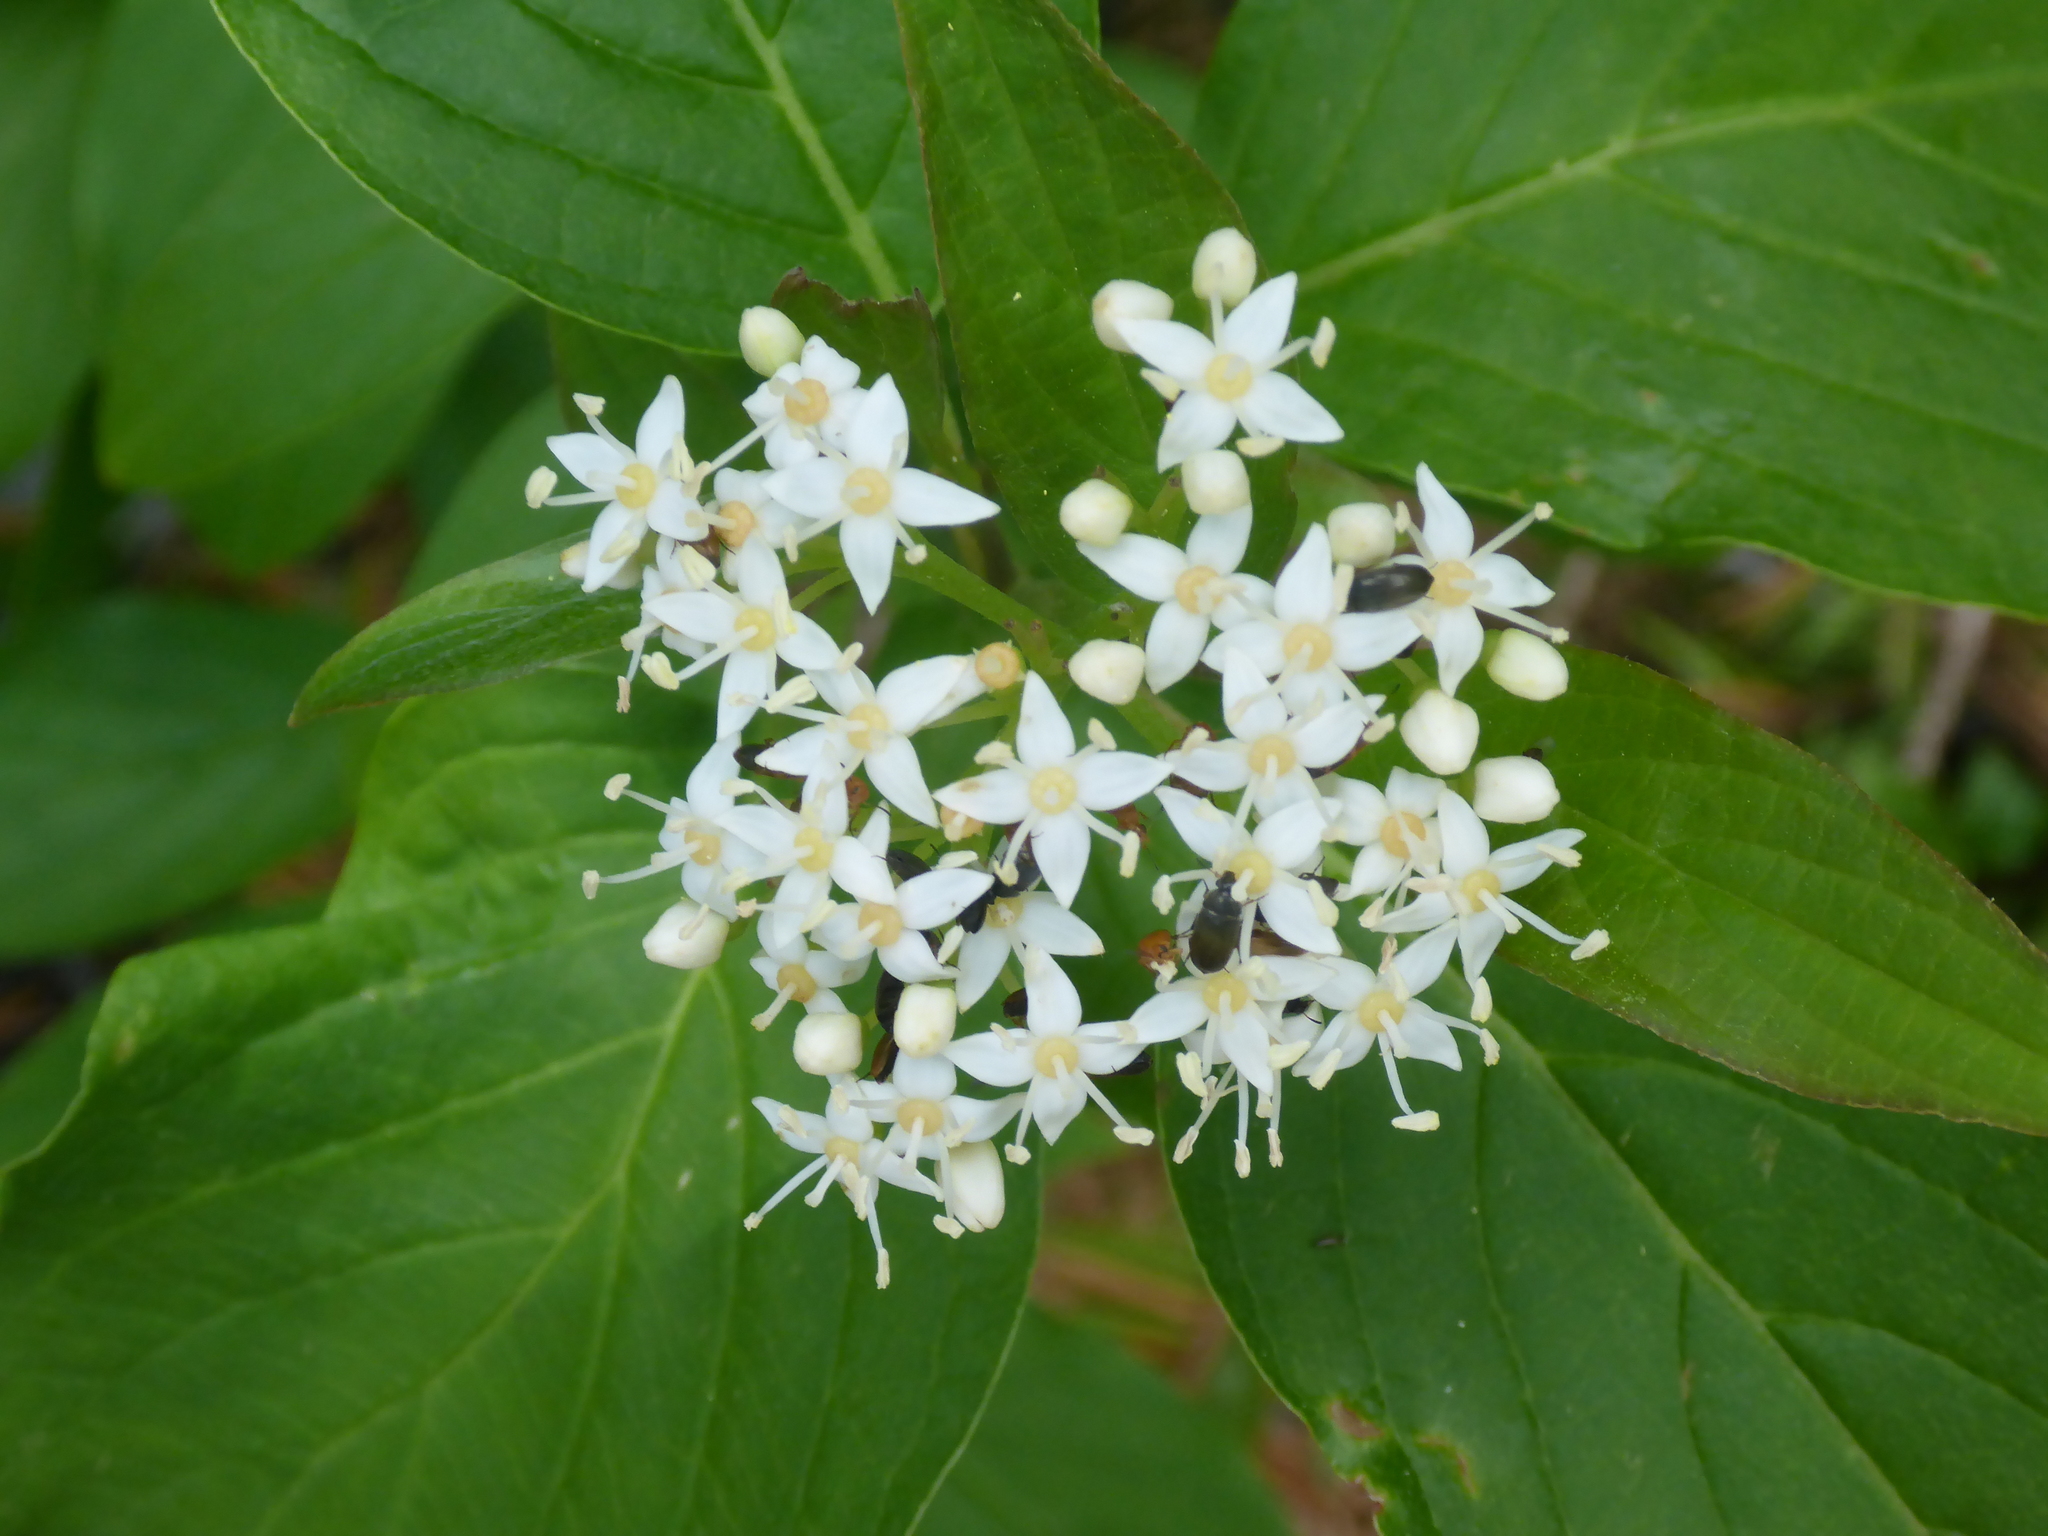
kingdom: Plantae
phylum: Tracheophyta
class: Magnoliopsida
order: Cornales
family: Cornaceae
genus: Cornus
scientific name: Cornus sericea
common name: Red-osier dogwood
